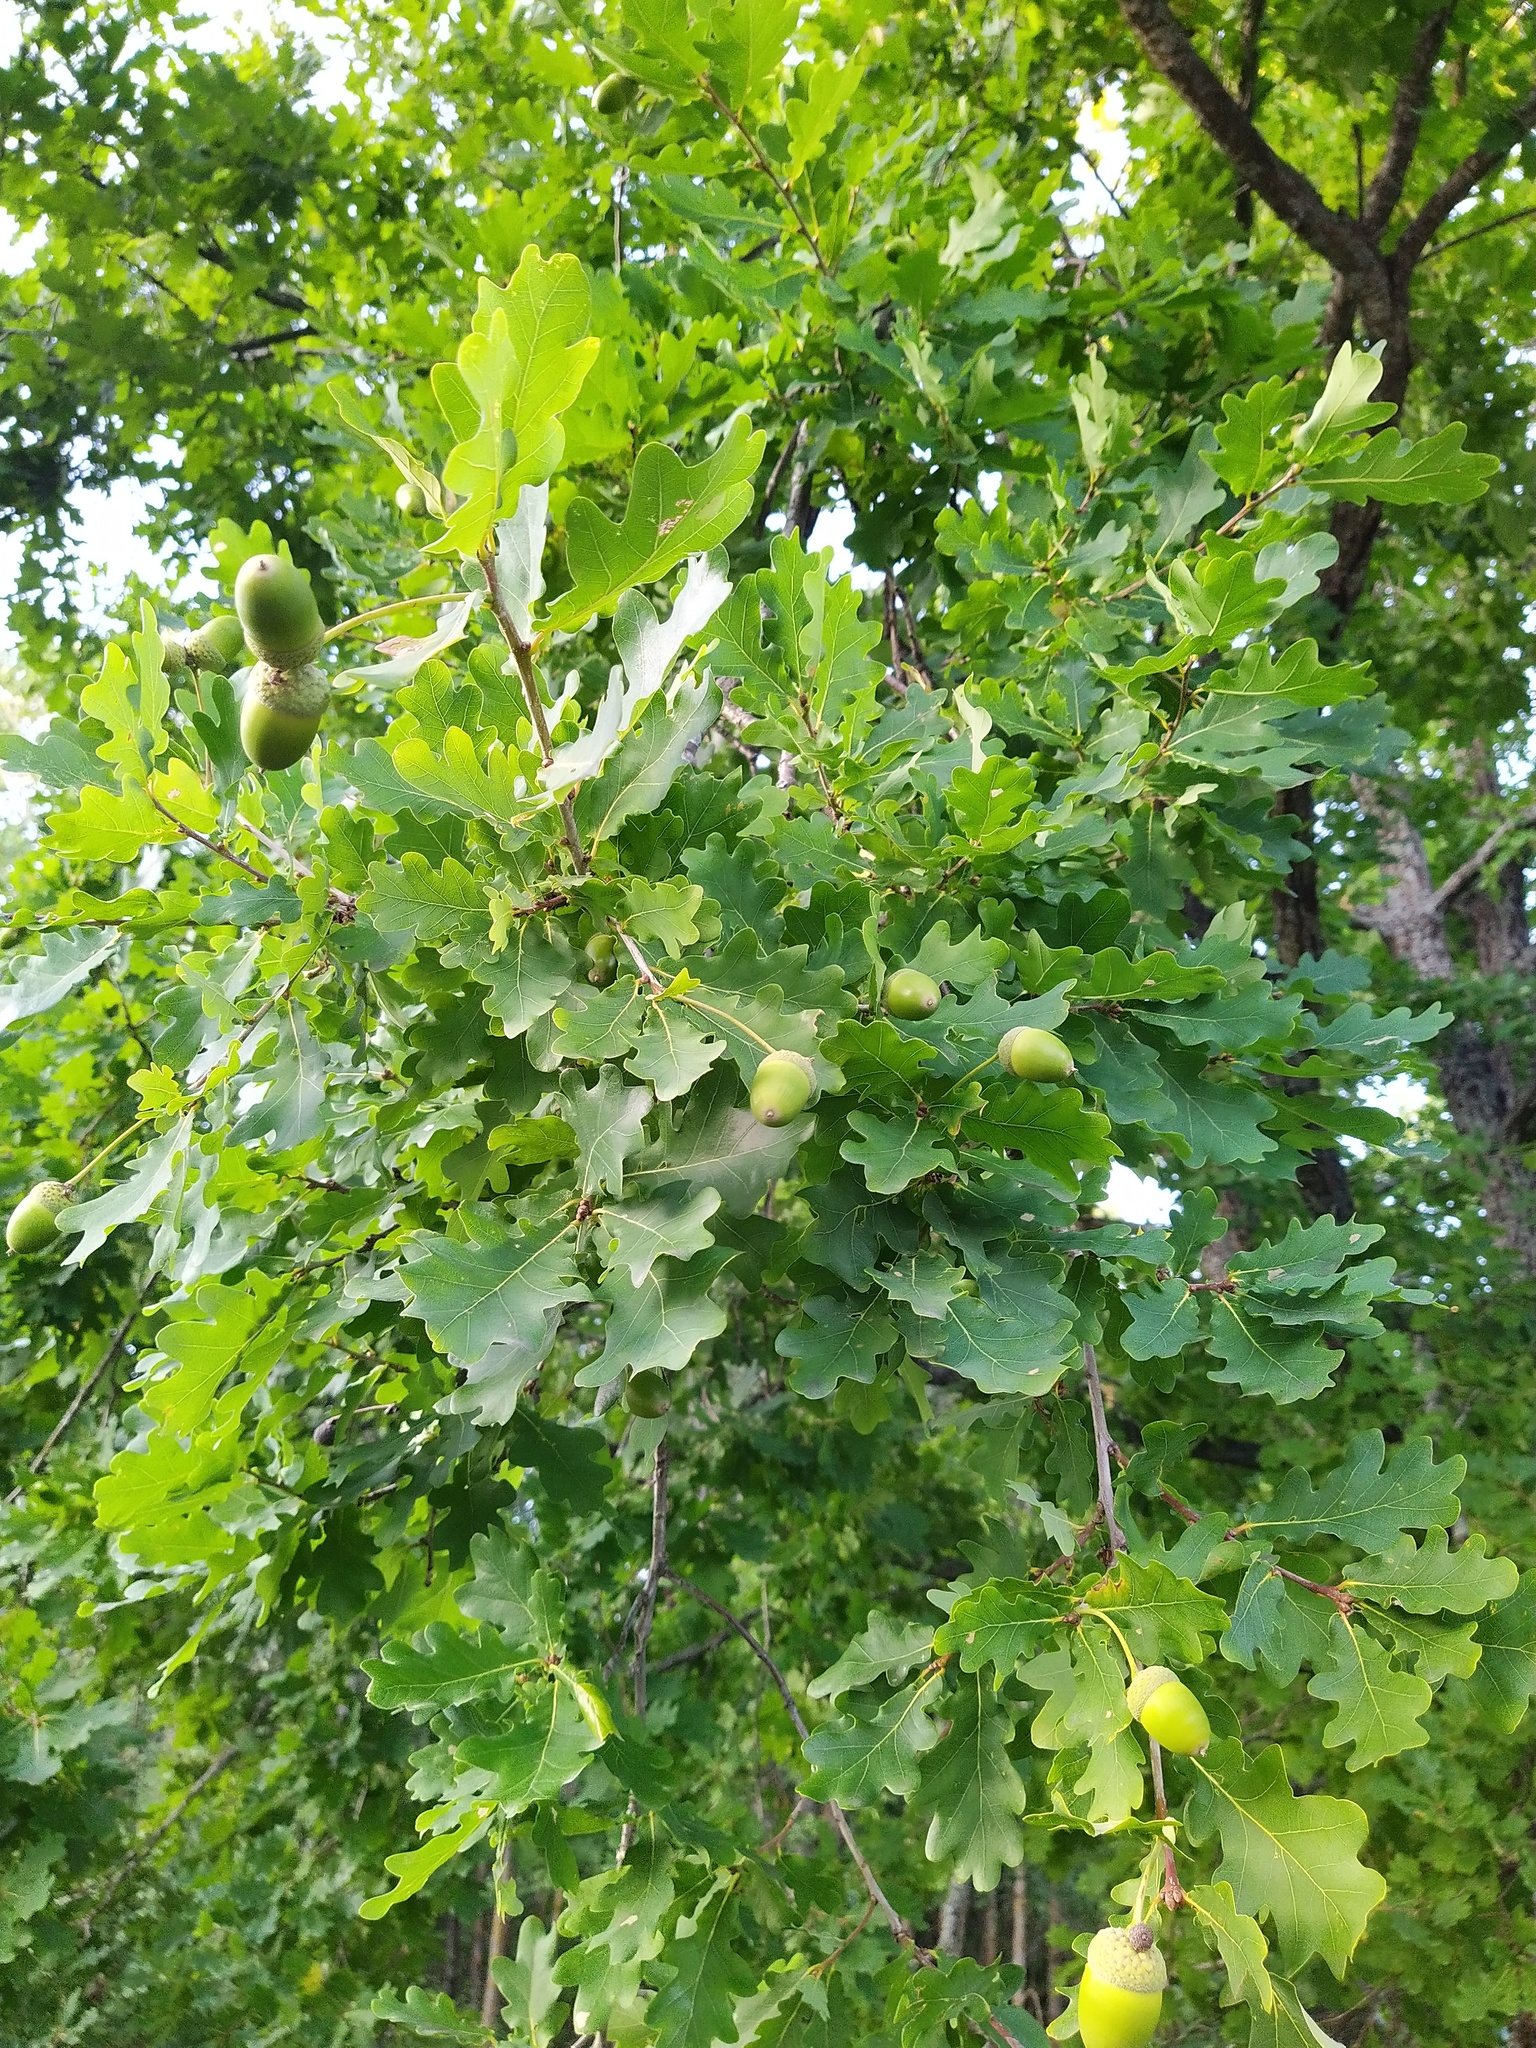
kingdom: Plantae
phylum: Tracheophyta
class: Magnoliopsida
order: Fagales
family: Fagaceae
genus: Quercus
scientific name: Quercus robur
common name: Pedunculate oak
